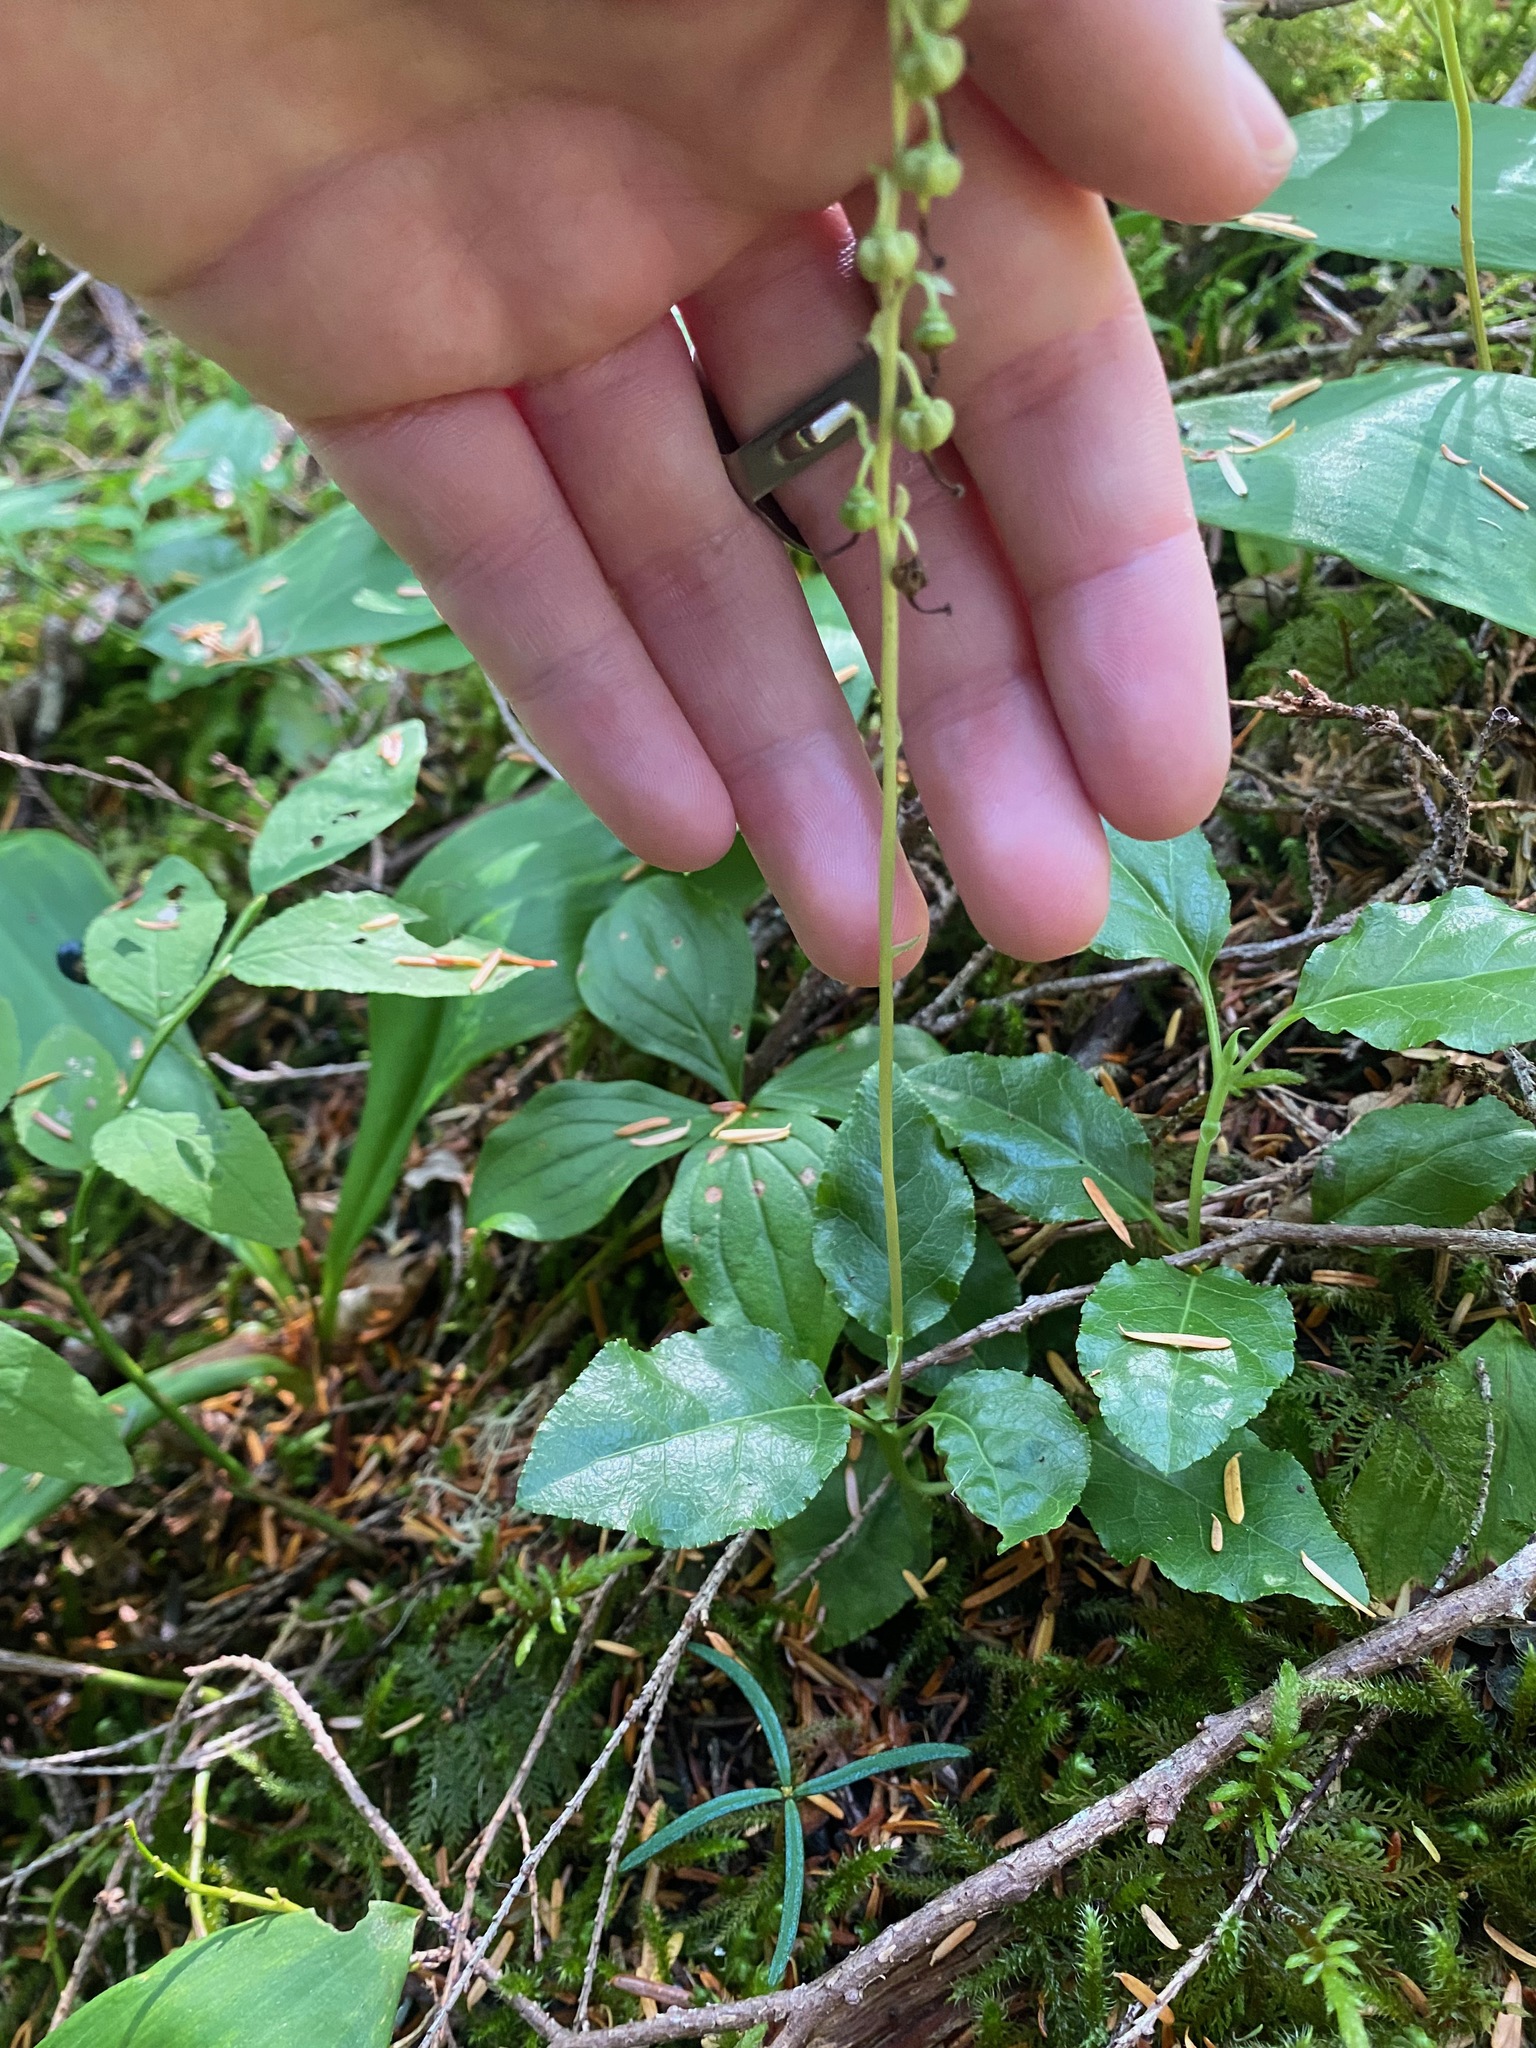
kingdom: Plantae
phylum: Tracheophyta
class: Magnoliopsida
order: Ericales
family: Ericaceae
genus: Orthilia
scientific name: Orthilia secunda
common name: One-sided orthilia
